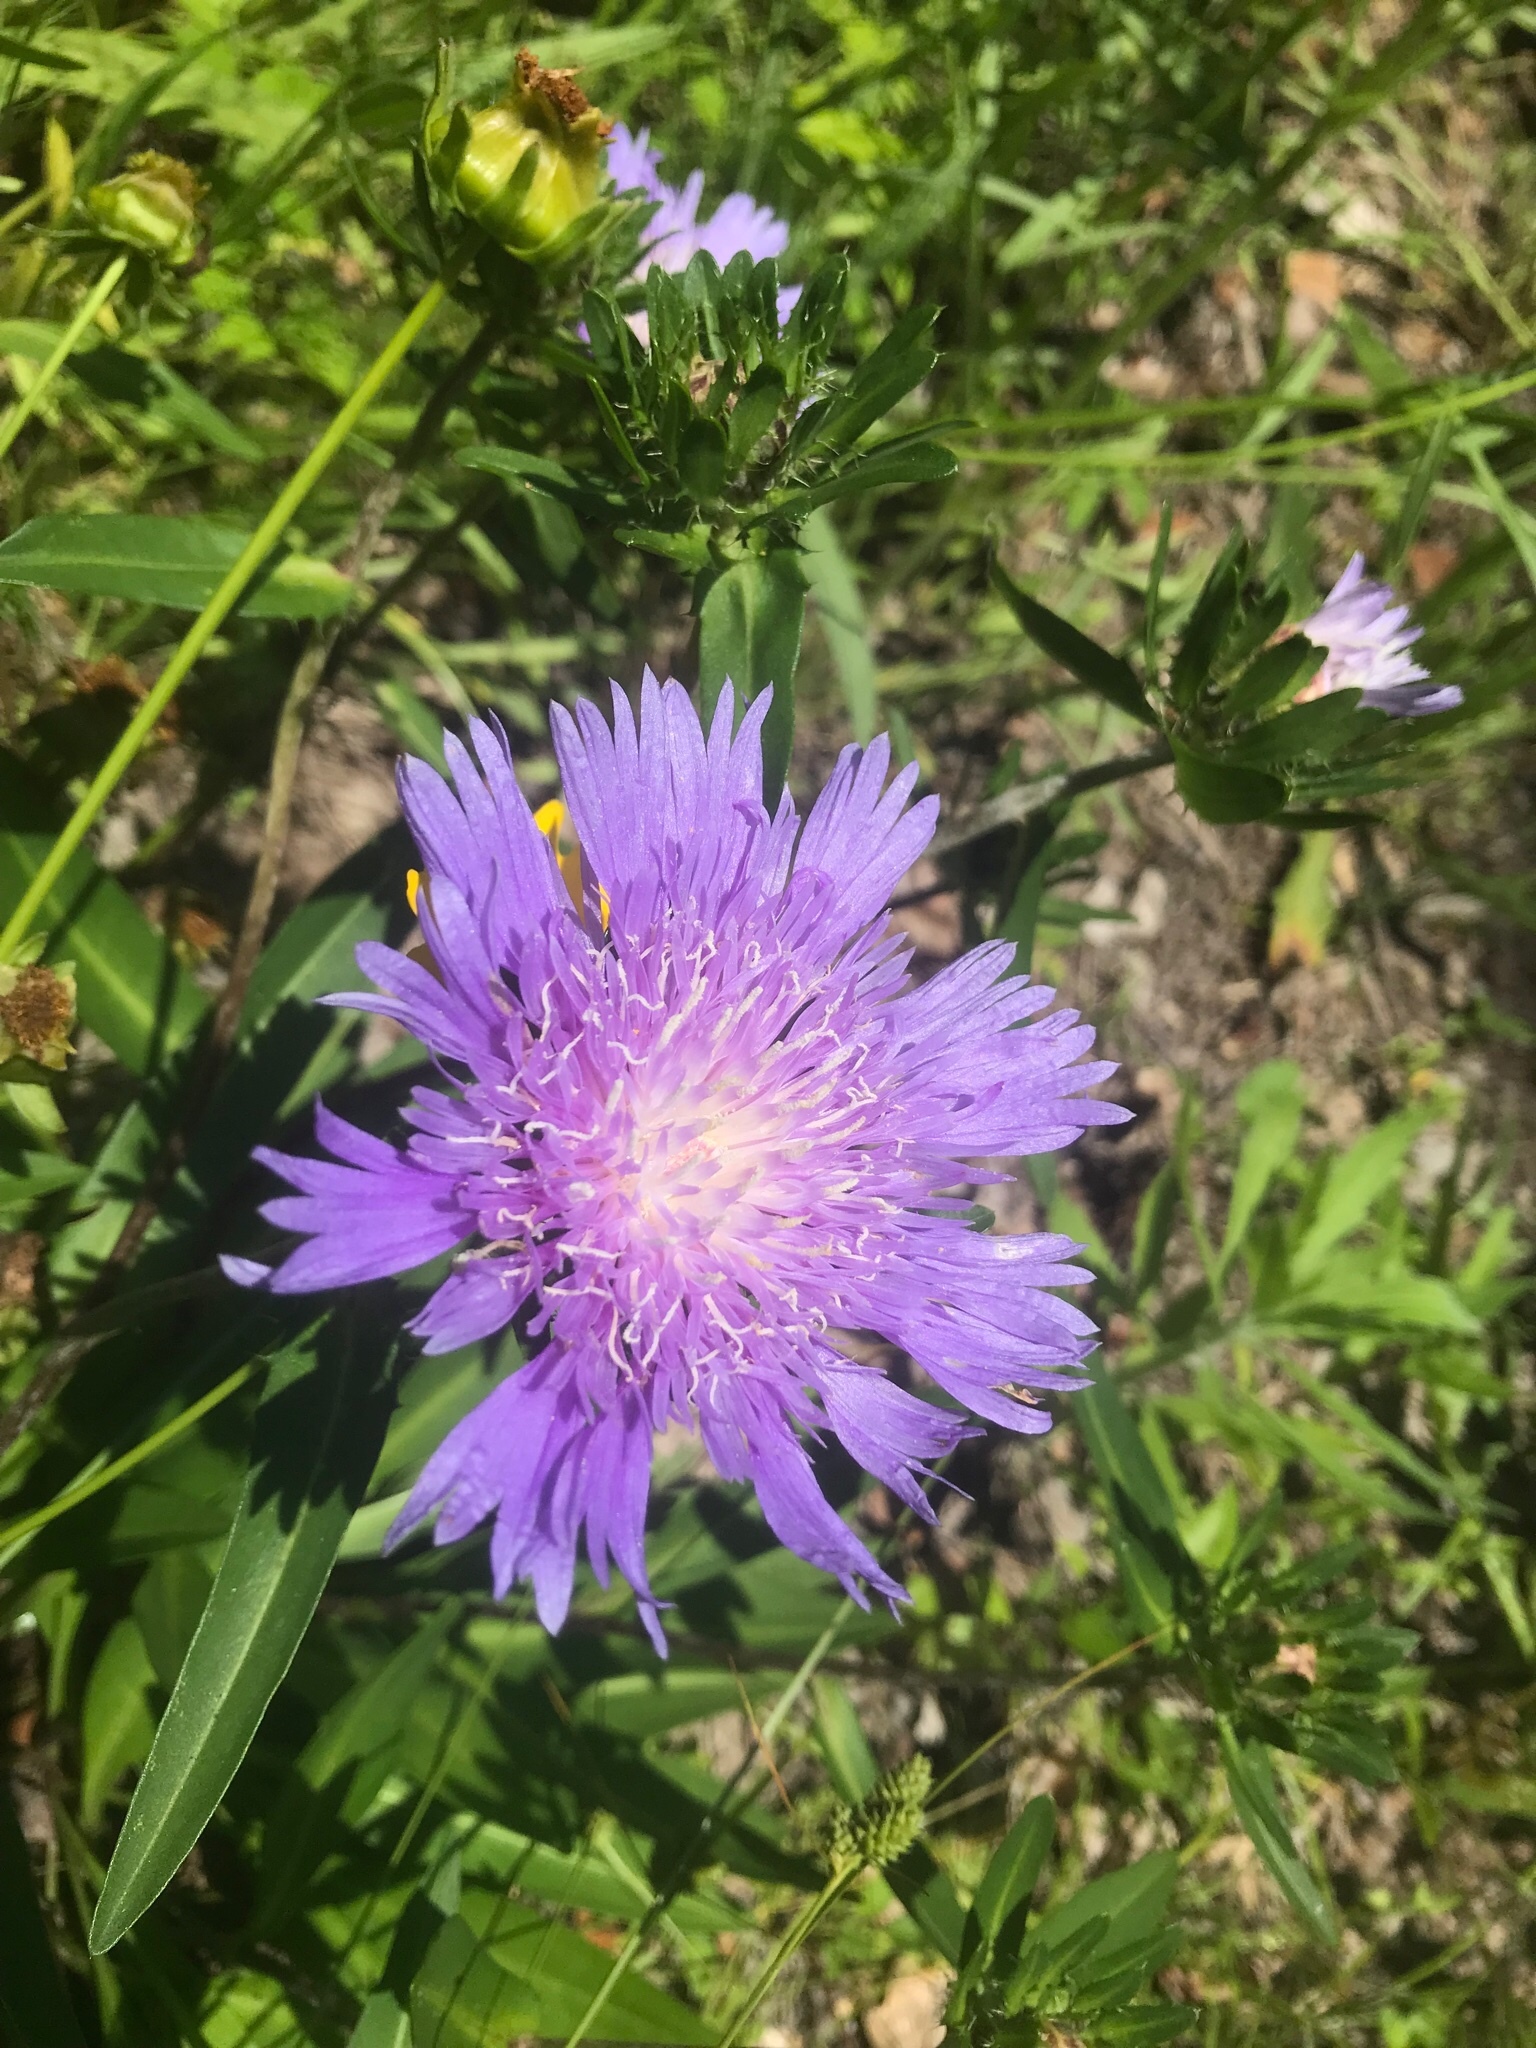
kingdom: Plantae
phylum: Tracheophyta
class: Magnoliopsida
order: Asterales
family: Asteraceae
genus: Stokesia
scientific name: Stokesia laevis
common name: Stokes'-aster
